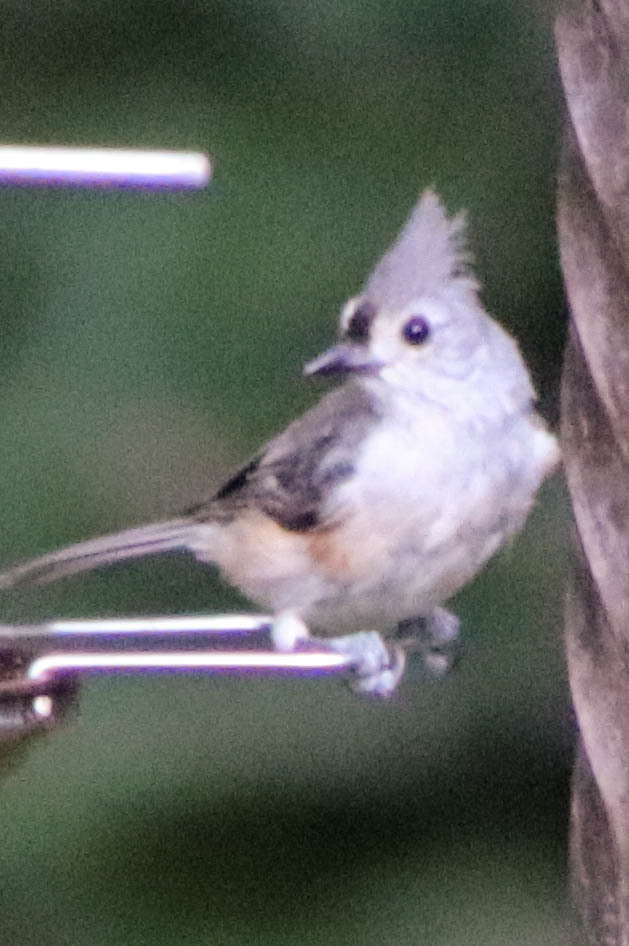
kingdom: Animalia
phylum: Chordata
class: Aves
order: Passeriformes
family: Paridae
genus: Baeolophus
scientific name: Baeolophus bicolor
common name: Tufted titmouse
